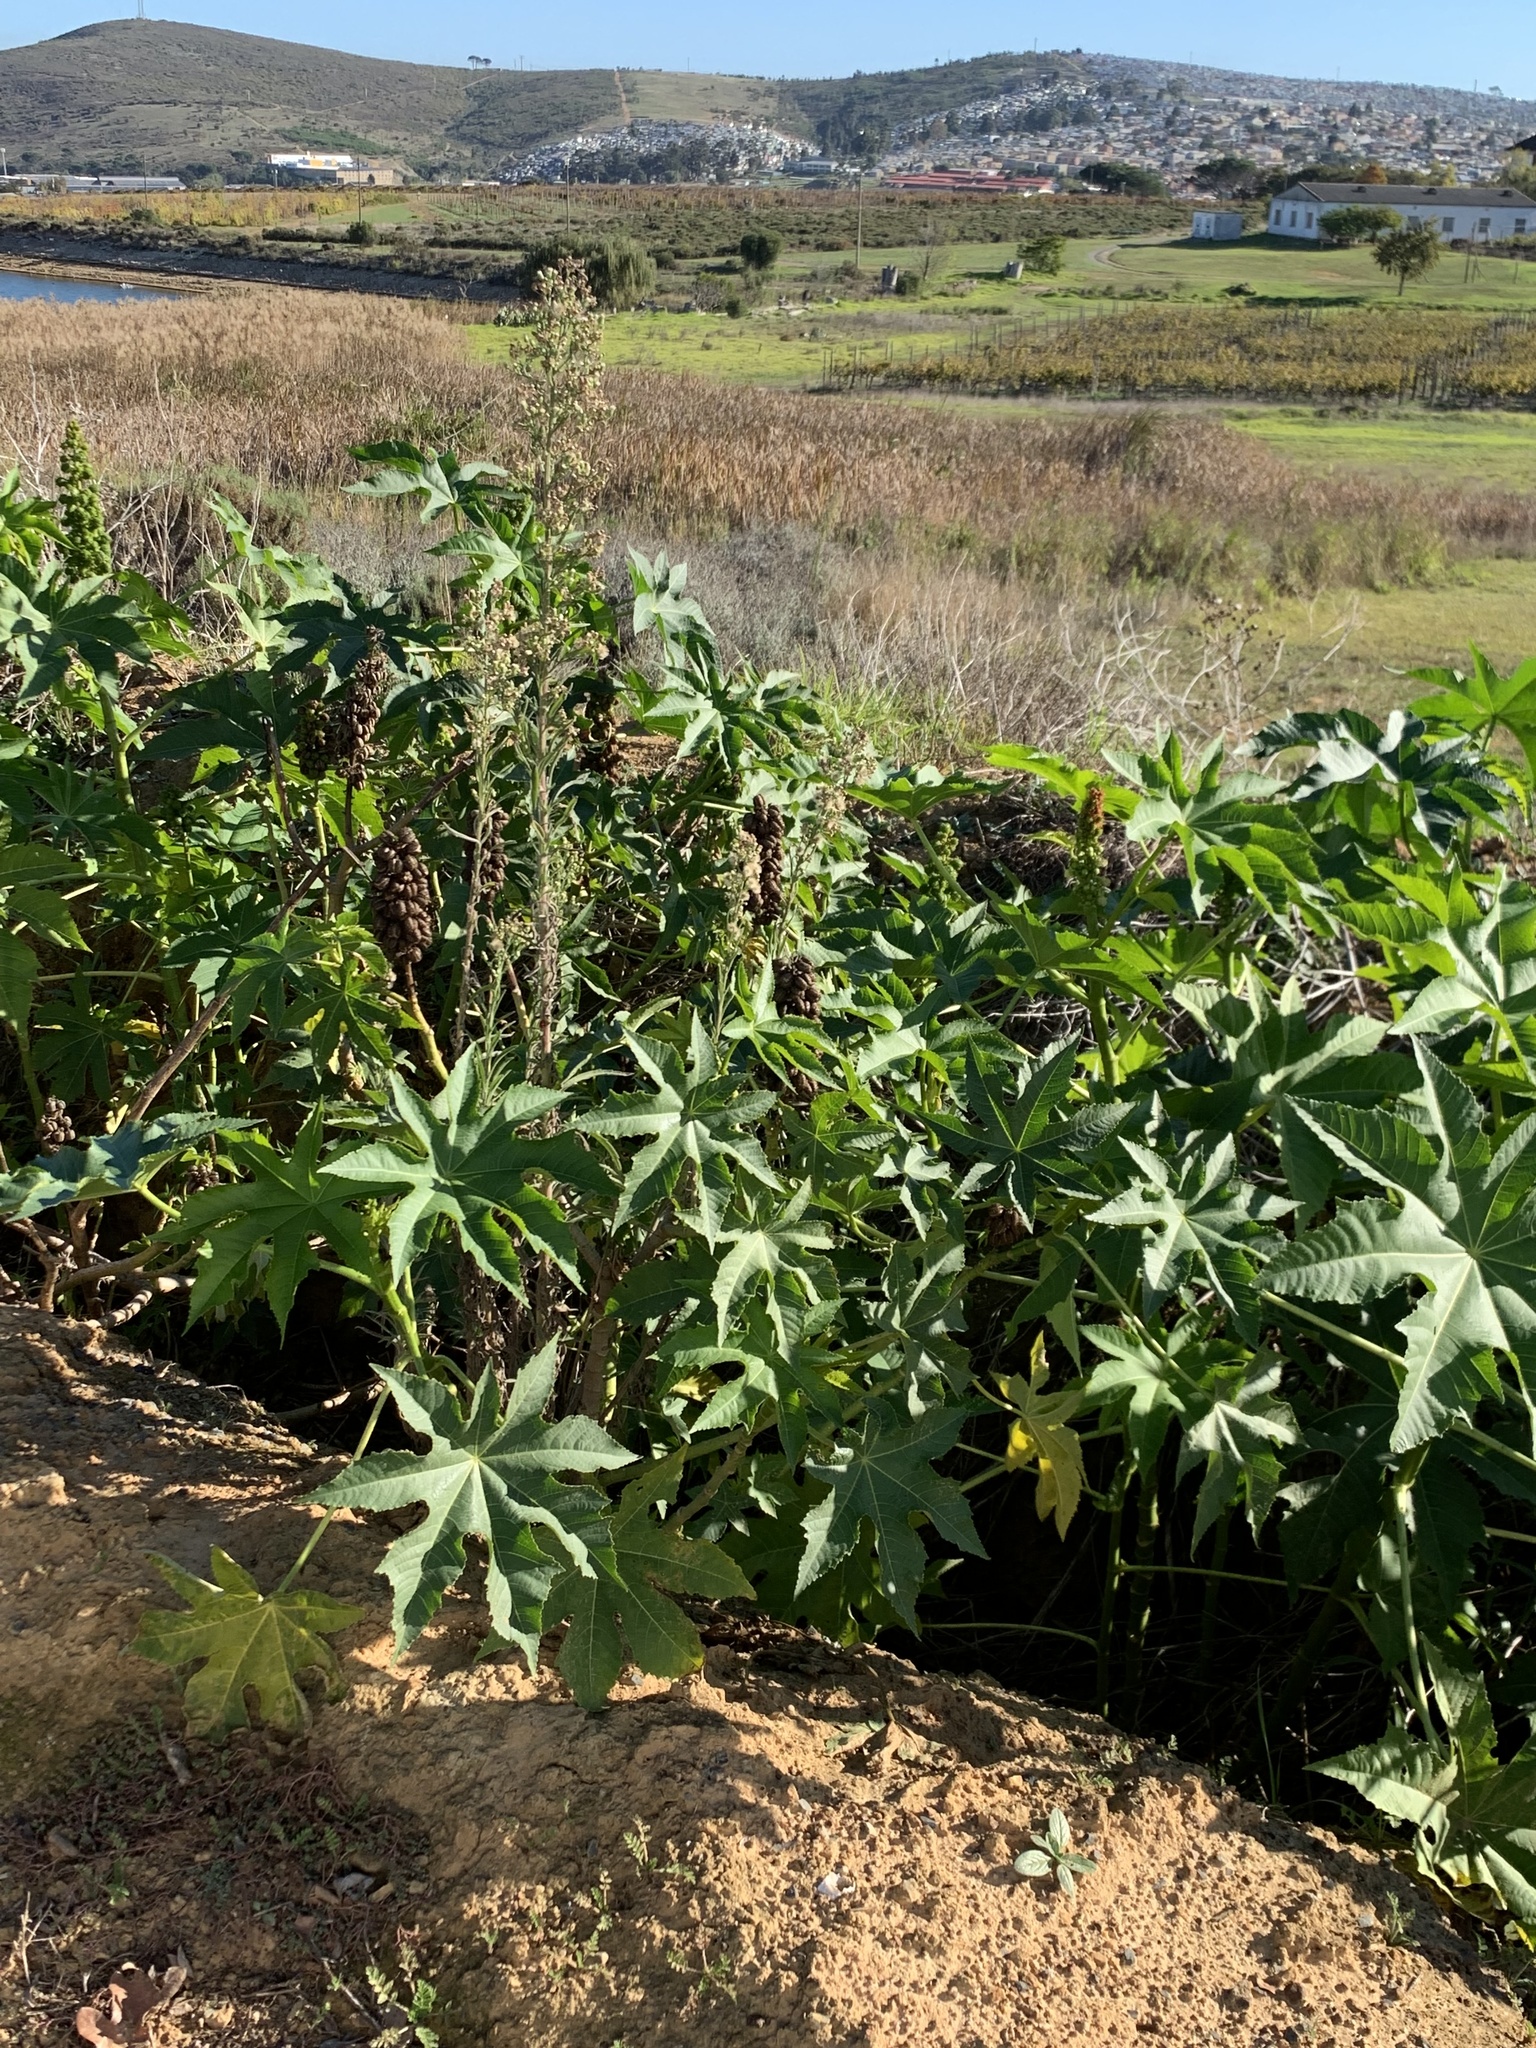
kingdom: Plantae
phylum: Tracheophyta
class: Magnoliopsida
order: Malpighiales
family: Euphorbiaceae
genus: Ricinus
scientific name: Ricinus communis
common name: Castor-oil-plant
